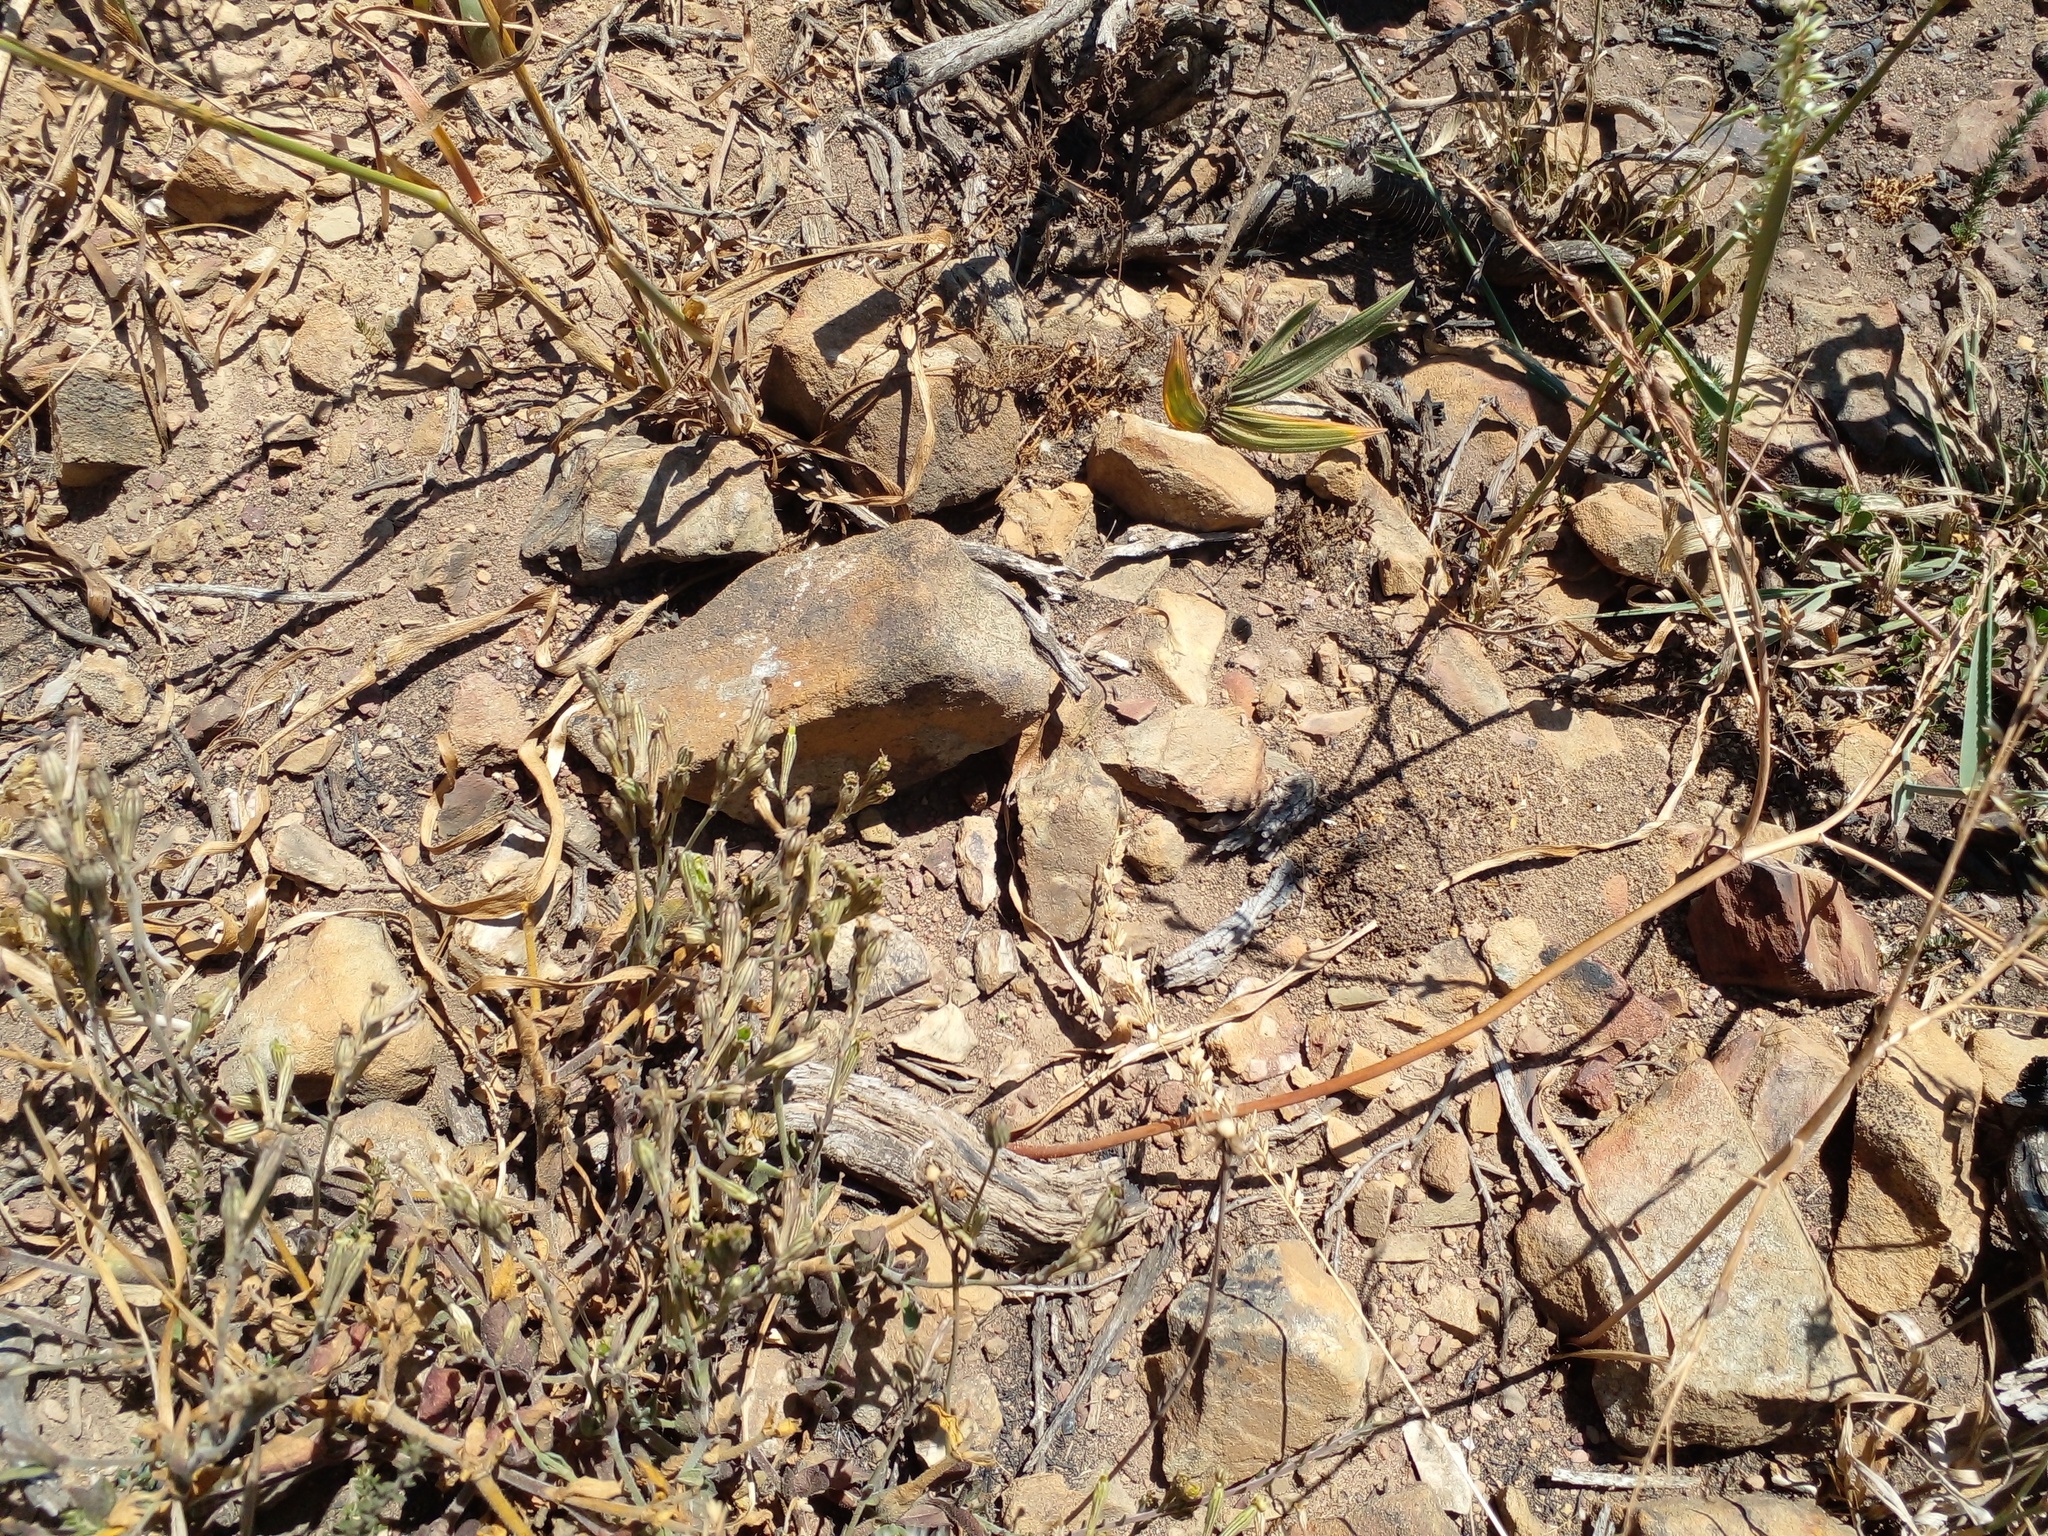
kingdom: Plantae
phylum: Tracheophyta
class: Magnoliopsida
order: Caryophyllales
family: Caryophyllaceae
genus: Silene
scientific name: Silene burchellii
